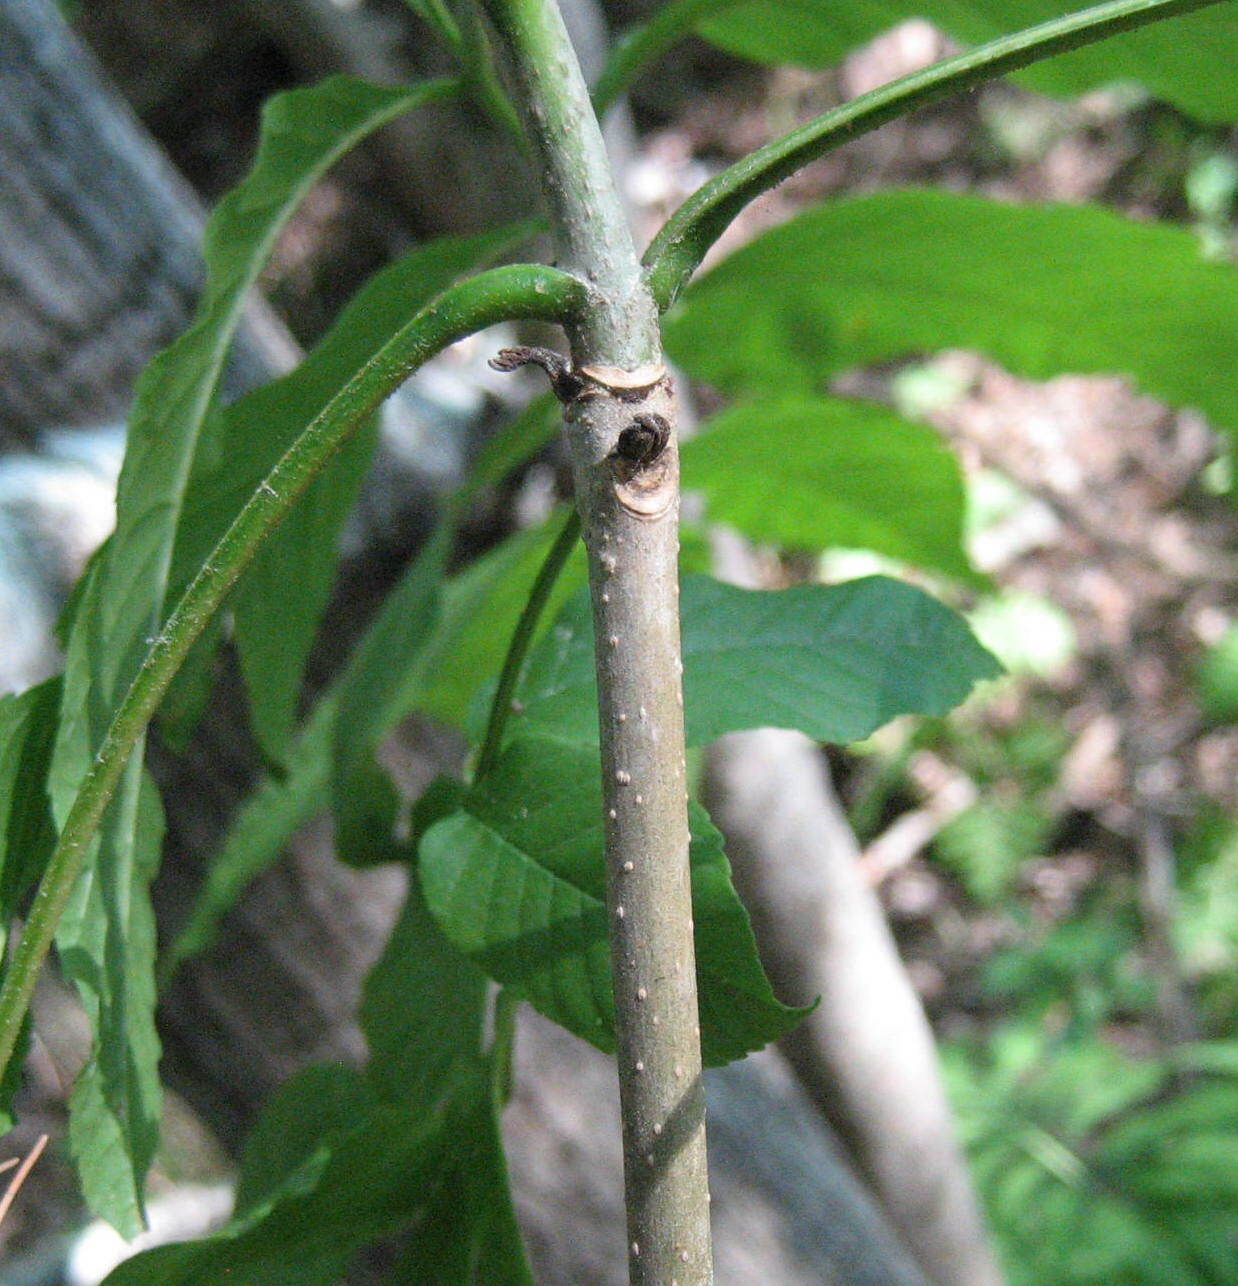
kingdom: Plantae
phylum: Tracheophyta
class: Magnoliopsida
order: Lamiales
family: Oleaceae
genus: Fraxinus
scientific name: Fraxinus pennsylvanica
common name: Green ash
